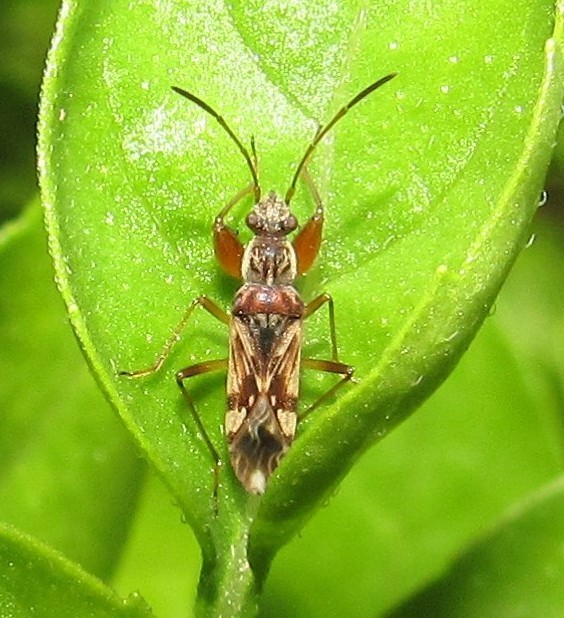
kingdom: Animalia
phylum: Arthropoda
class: Insecta
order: Hemiptera
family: Rhyparochromidae
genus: Neopamera
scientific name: Neopamera bilobata
